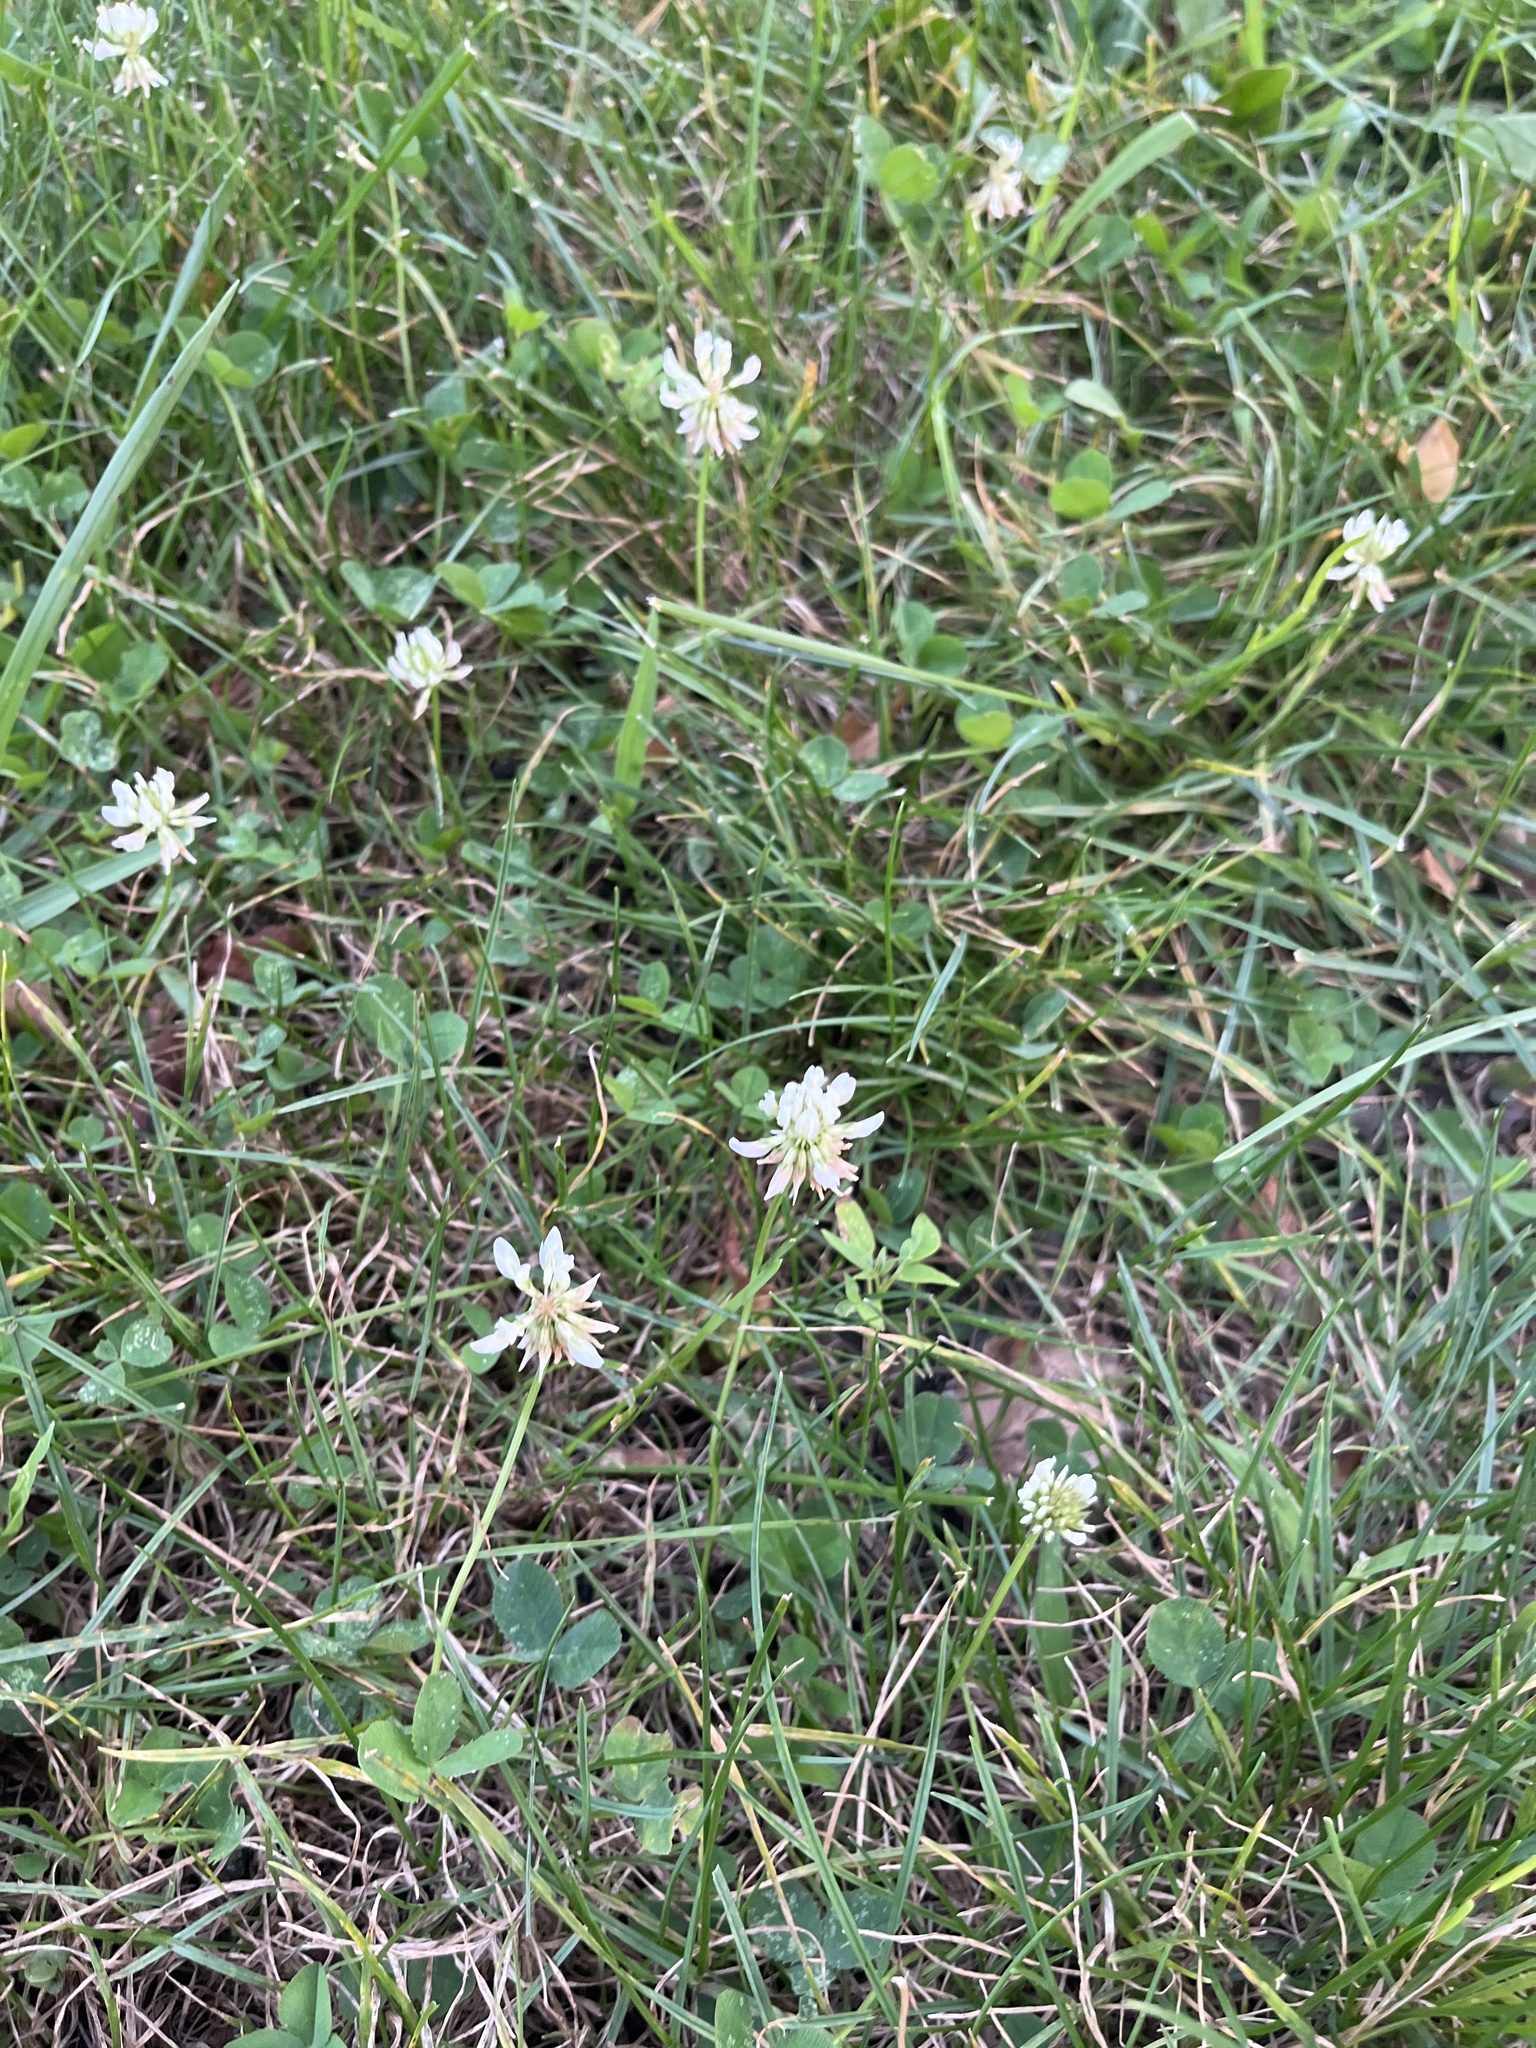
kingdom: Plantae
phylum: Tracheophyta
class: Magnoliopsida
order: Fabales
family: Fabaceae
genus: Trifolium
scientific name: Trifolium repens
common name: White clover
